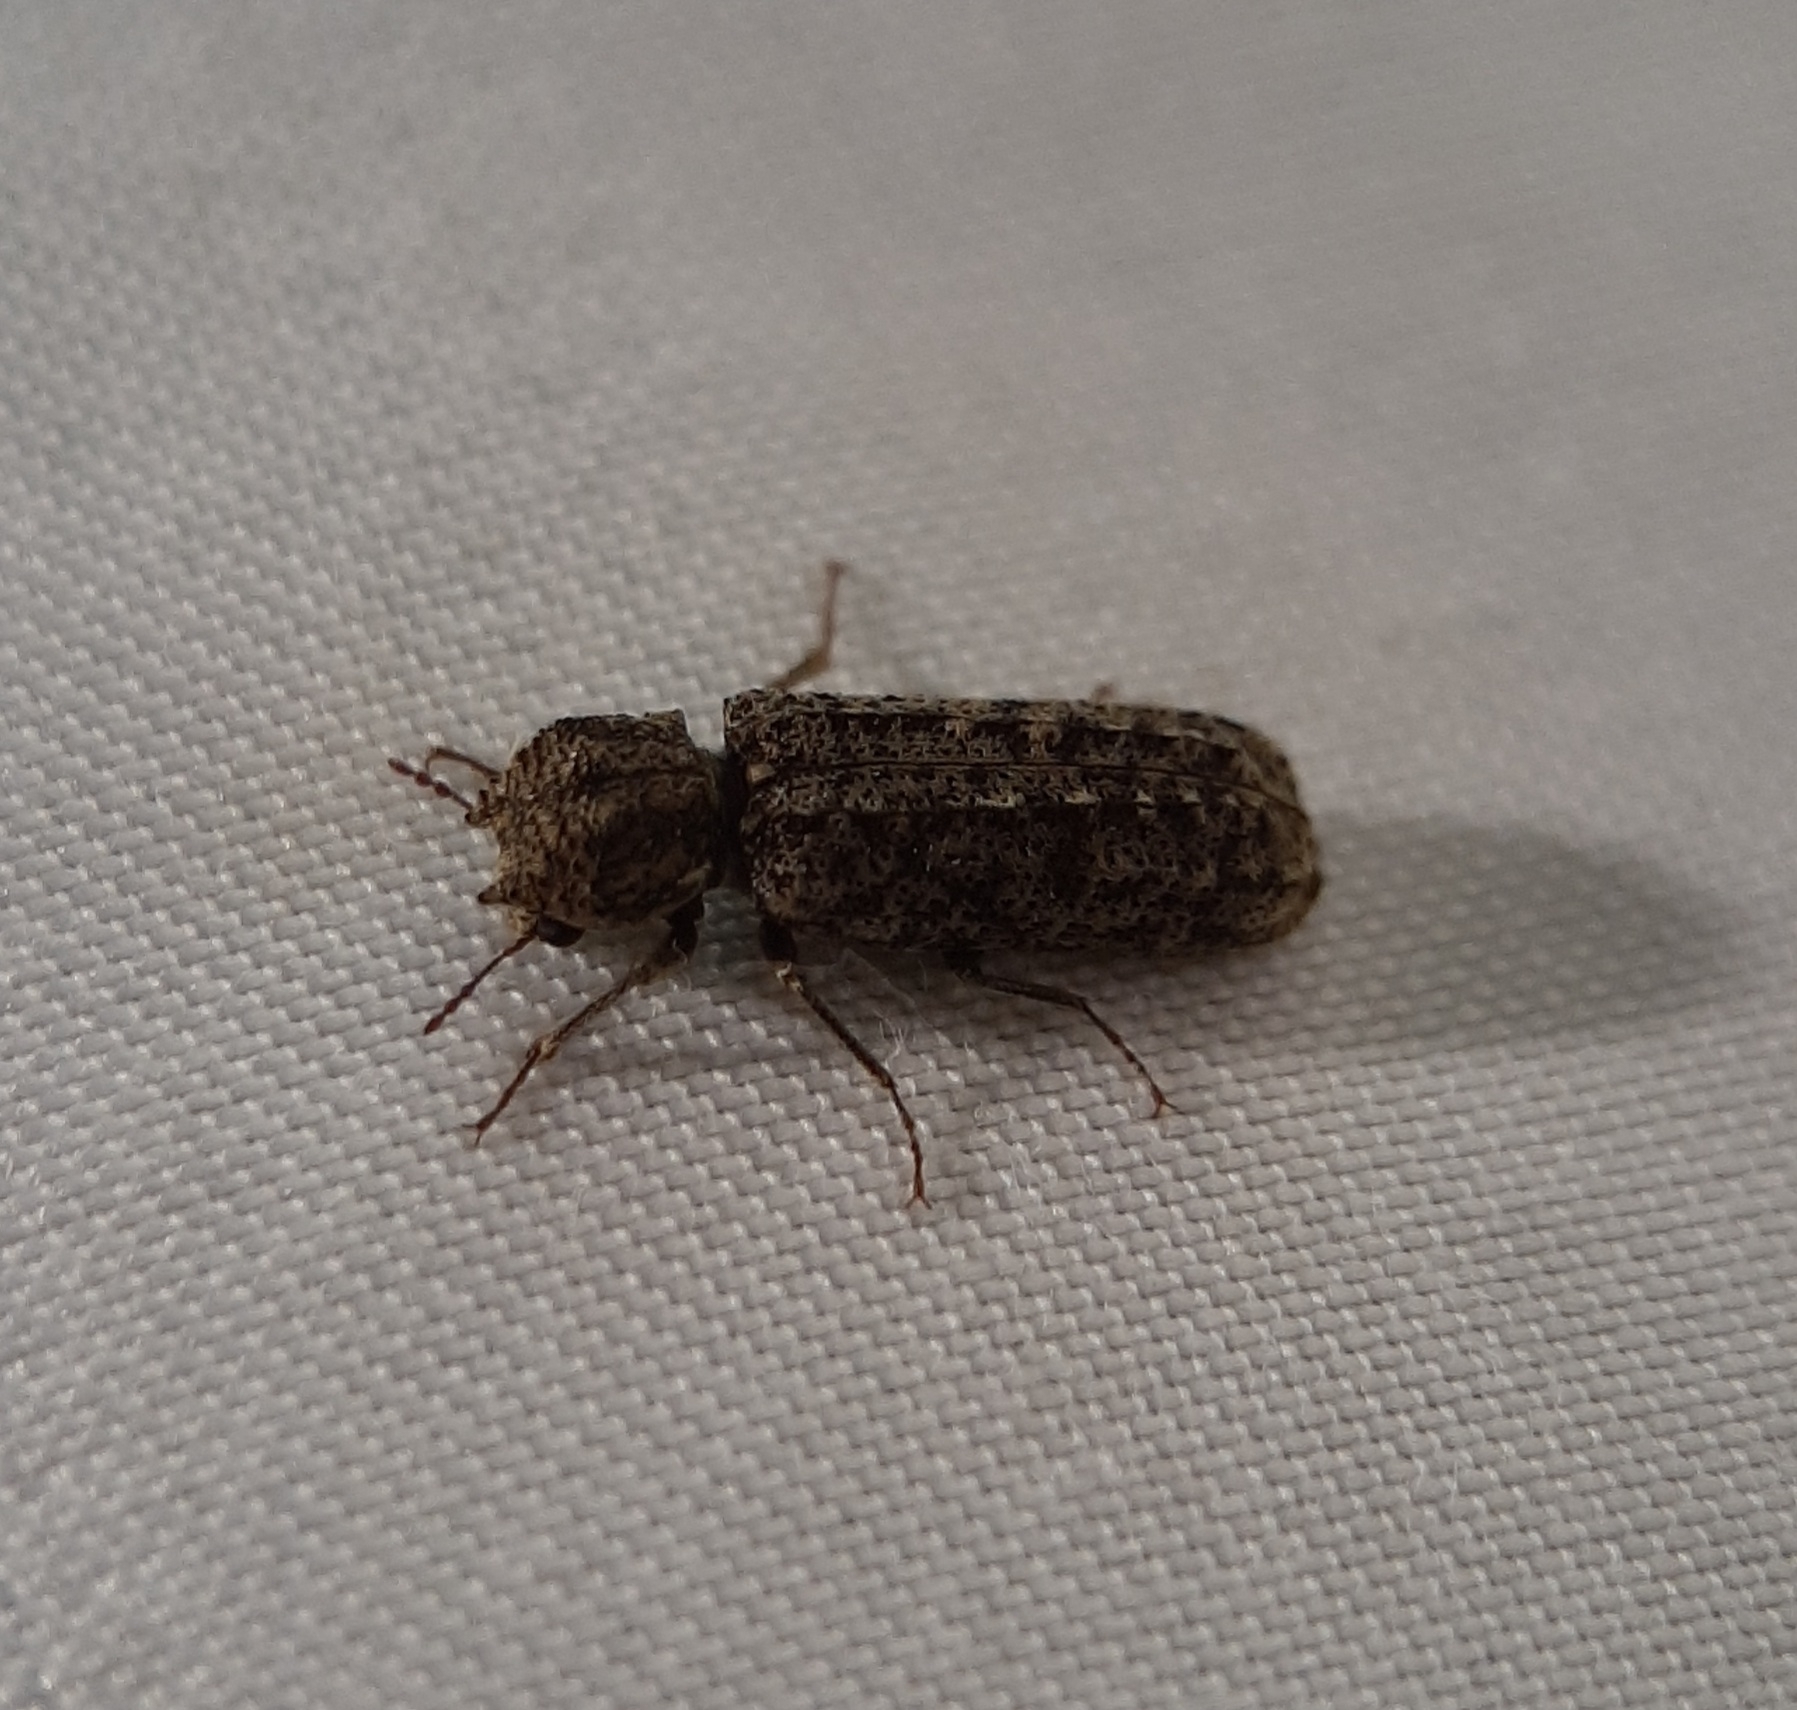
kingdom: Animalia
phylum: Arthropoda
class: Insecta
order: Coleoptera
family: Bostrichidae
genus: Lichenophanes
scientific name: Lichenophanes bicornis
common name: Two-horned powder-post beetle
